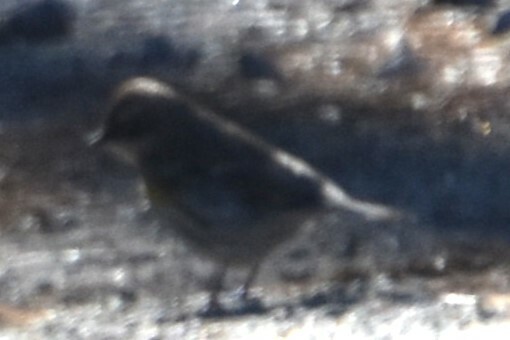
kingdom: Animalia
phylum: Chordata
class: Aves
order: Passeriformes
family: Parulidae
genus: Setophaga
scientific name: Setophaga coronata
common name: Myrtle warbler
